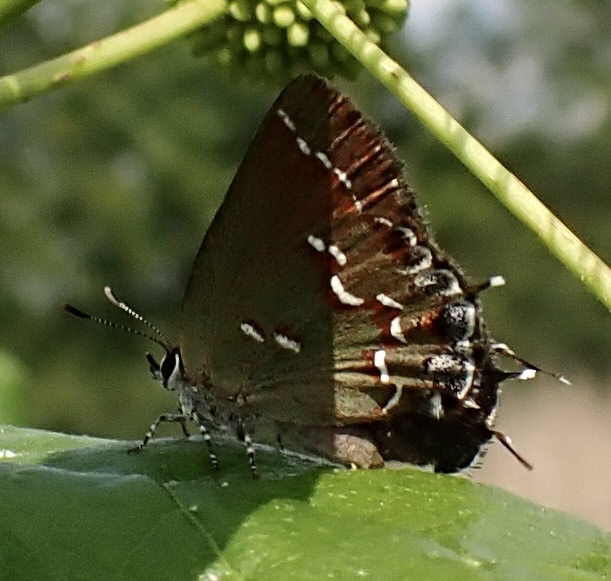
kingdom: Animalia
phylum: Arthropoda
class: Insecta
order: Lepidoptera
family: Lycaenidae
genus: Mitoura
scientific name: Mitoura gryneus
